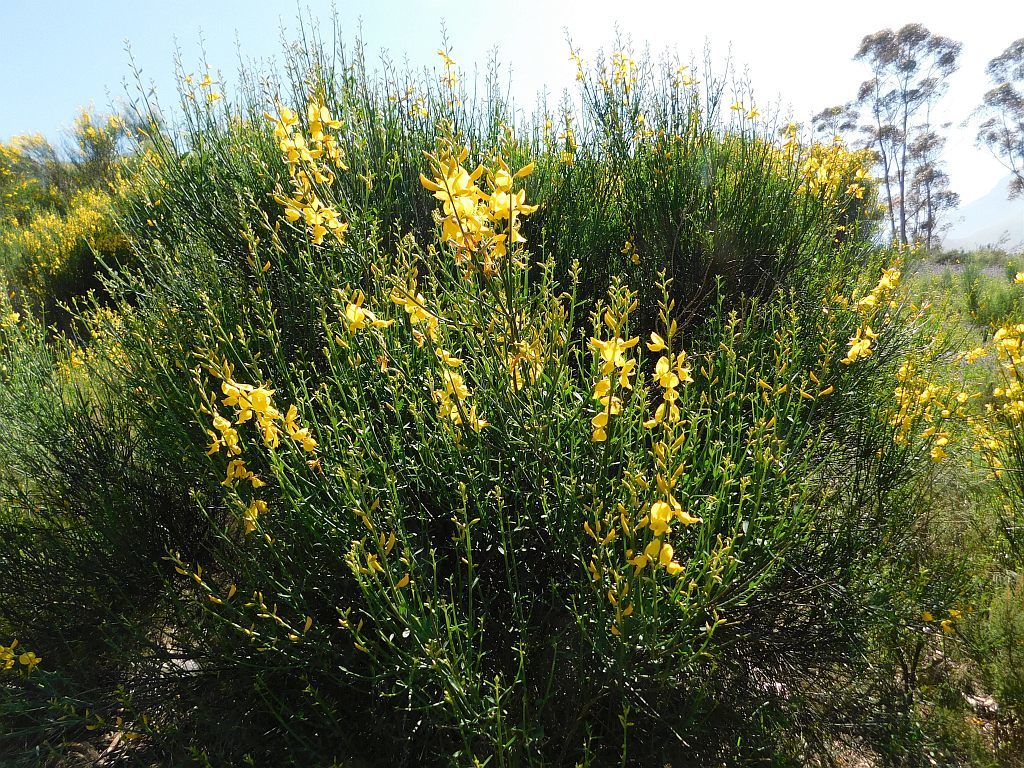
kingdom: Plantae
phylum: Tracheophyta
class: Magnoliopsida
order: Fabales
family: Fabaceae
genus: Spartium
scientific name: Spartium junceum
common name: Spanish broom
